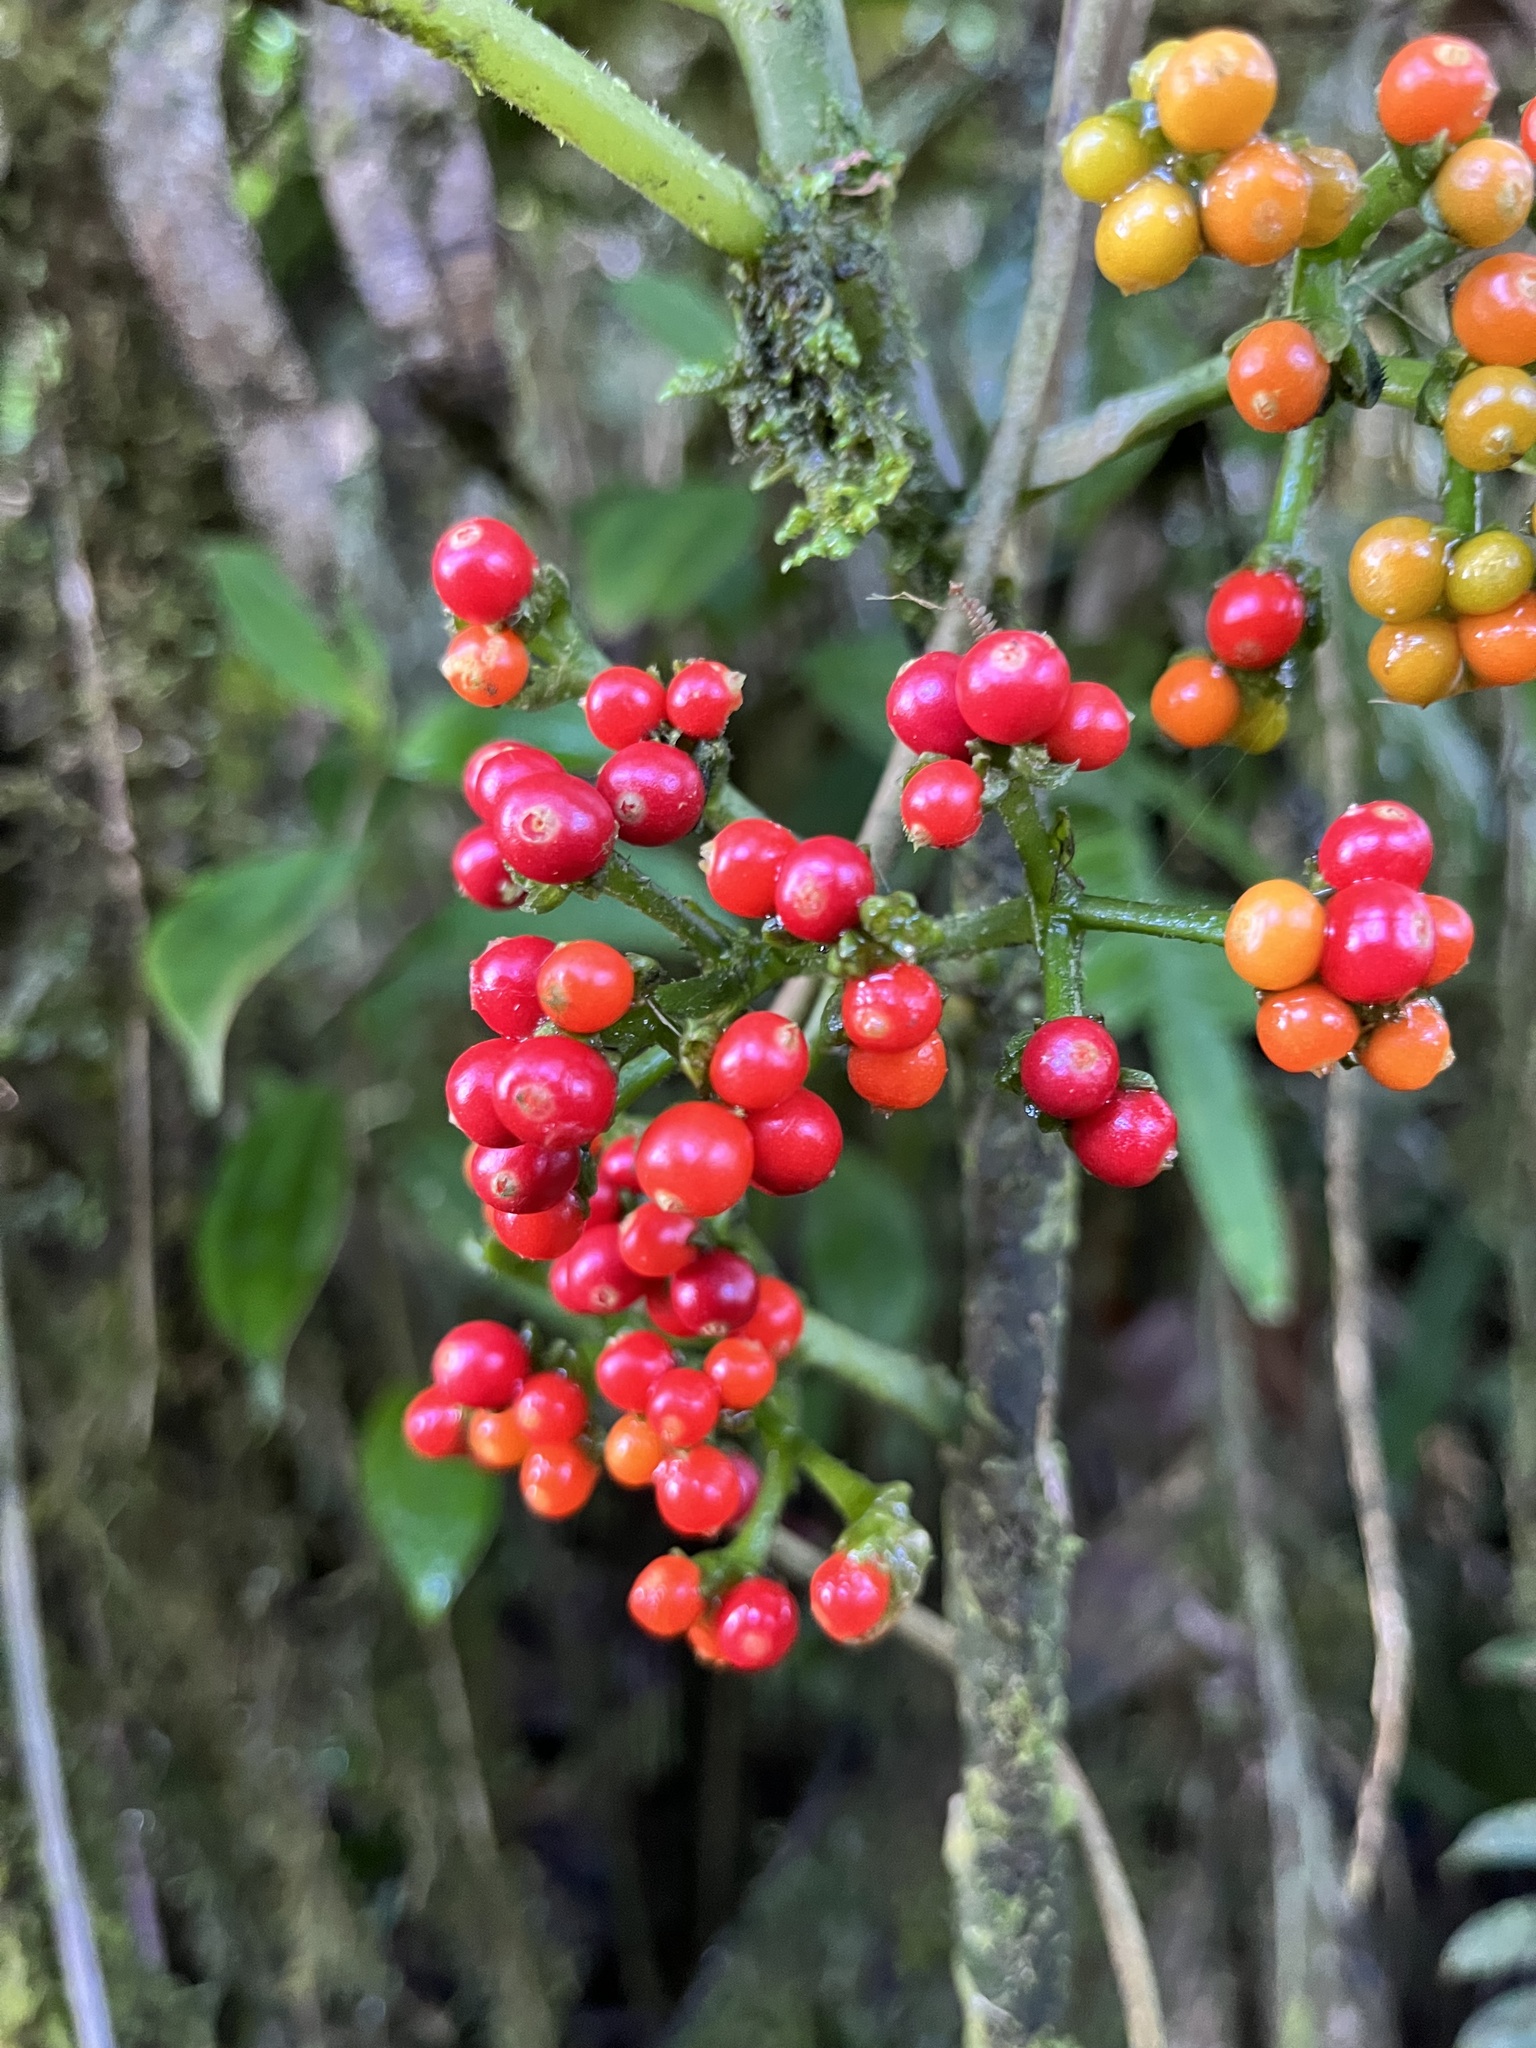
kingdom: Plantae
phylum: Tracheophyta
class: Magnoliopsida
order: Gentianales
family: Rubiaceae
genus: Notopleura
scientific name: Notopleura siggersiana
